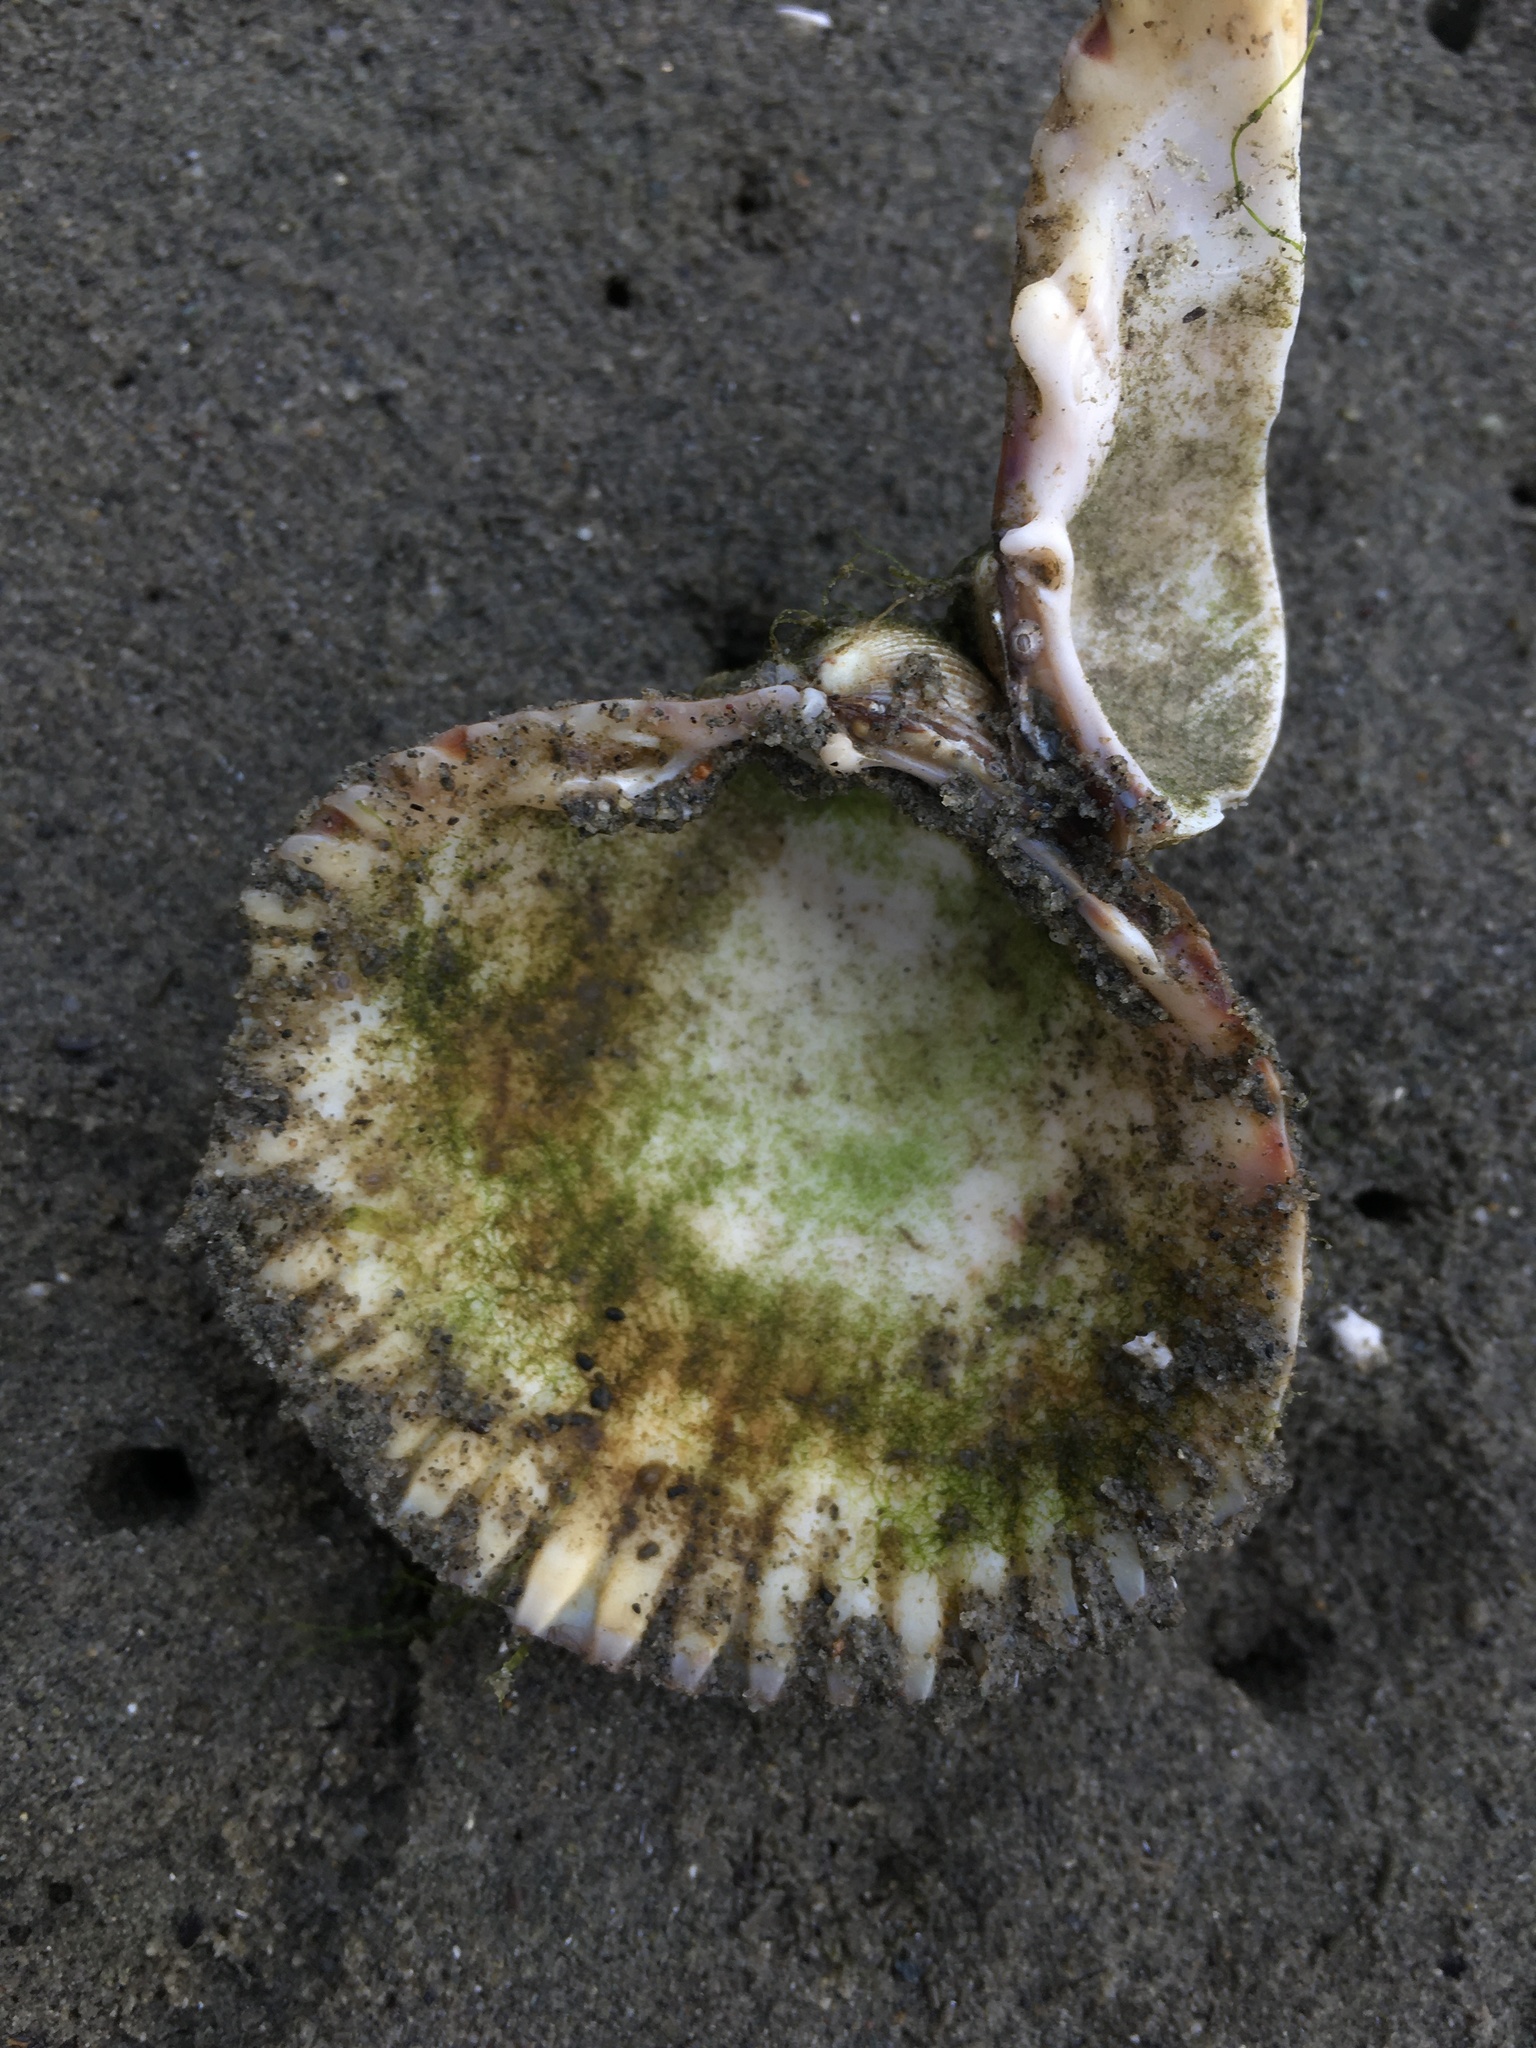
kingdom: Animalia
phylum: Mollusca
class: Bivalvia
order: Cardiida
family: Cardiidae
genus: Clinocardium
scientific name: Clinocardium nuttallii
